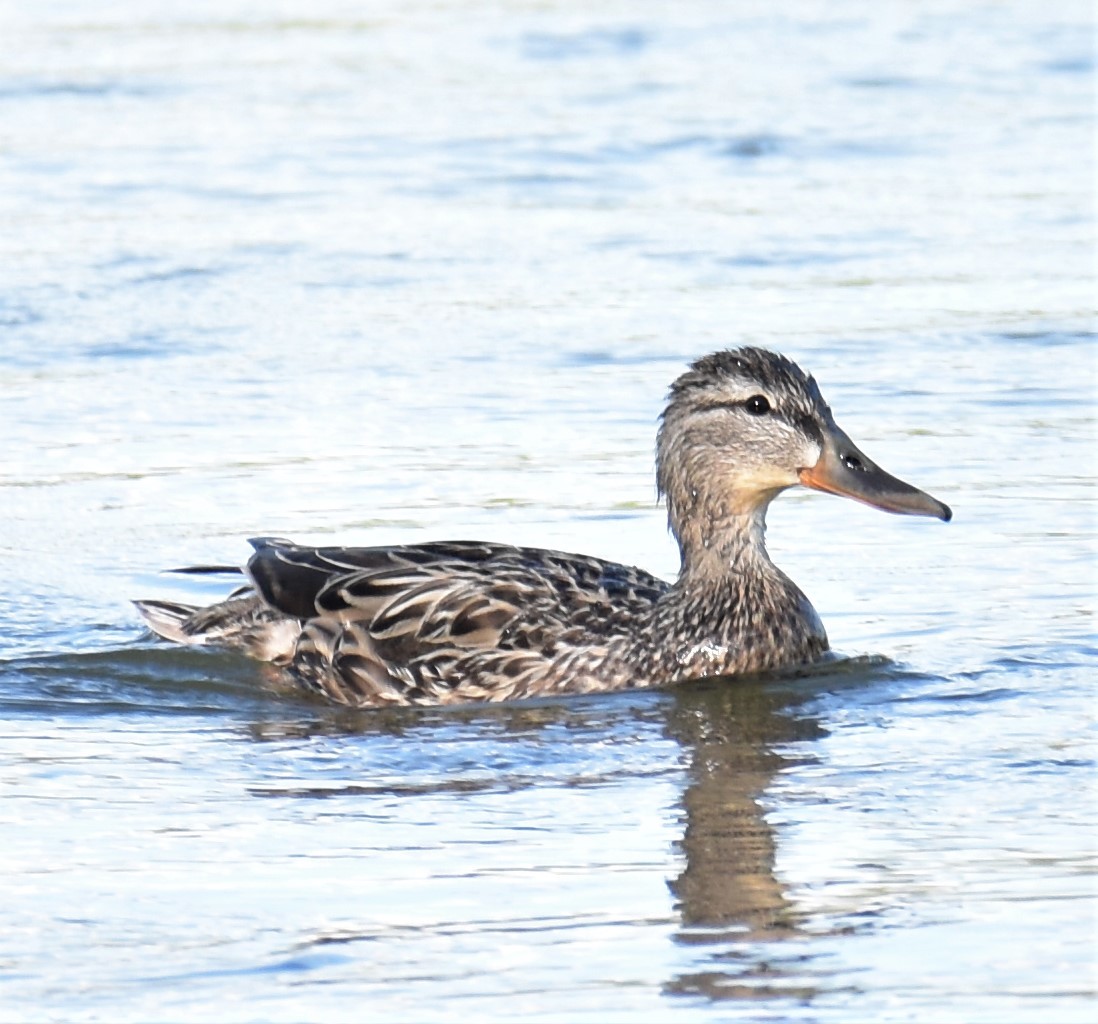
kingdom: Animalia
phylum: Chordata
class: Aves
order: Anseriformes
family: Anatidae
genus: Anas
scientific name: Anas platyrhynchos
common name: Mallard
